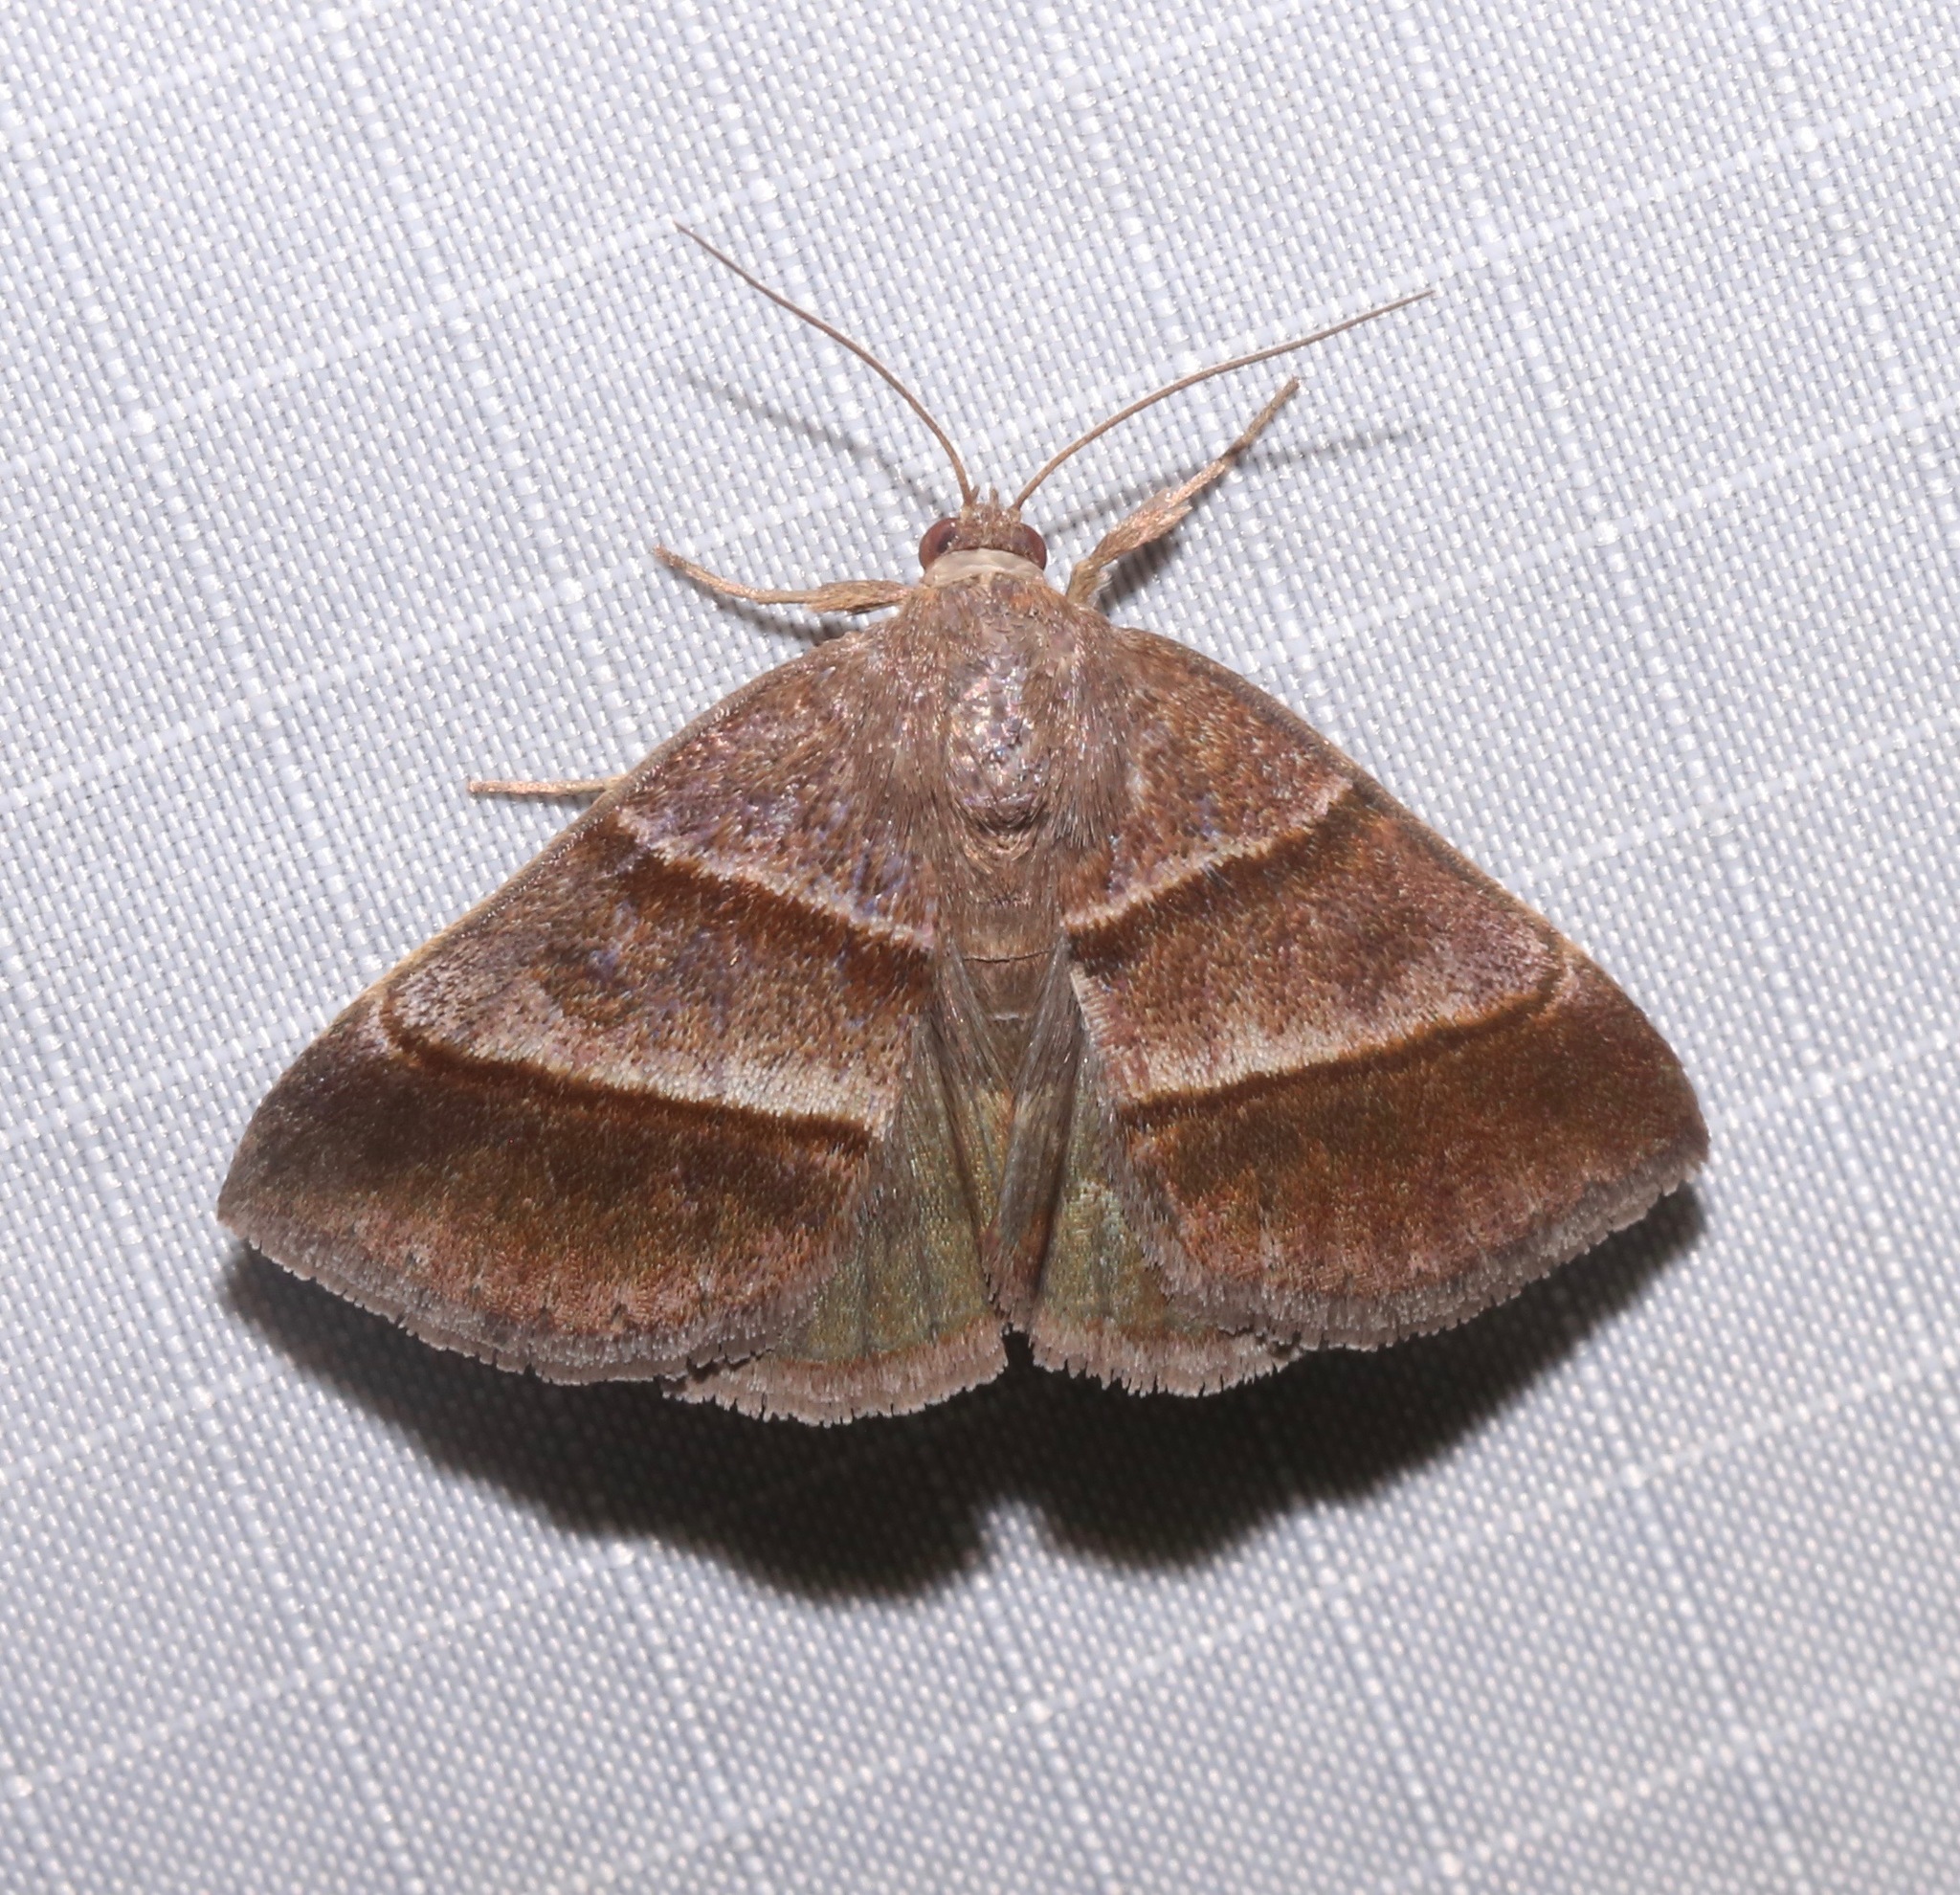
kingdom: Animalia
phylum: Arthropoda
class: Insecta
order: Lepidoptera
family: Erebidae
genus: Argyrostrotis
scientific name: Argyrostrotis sylvarum
